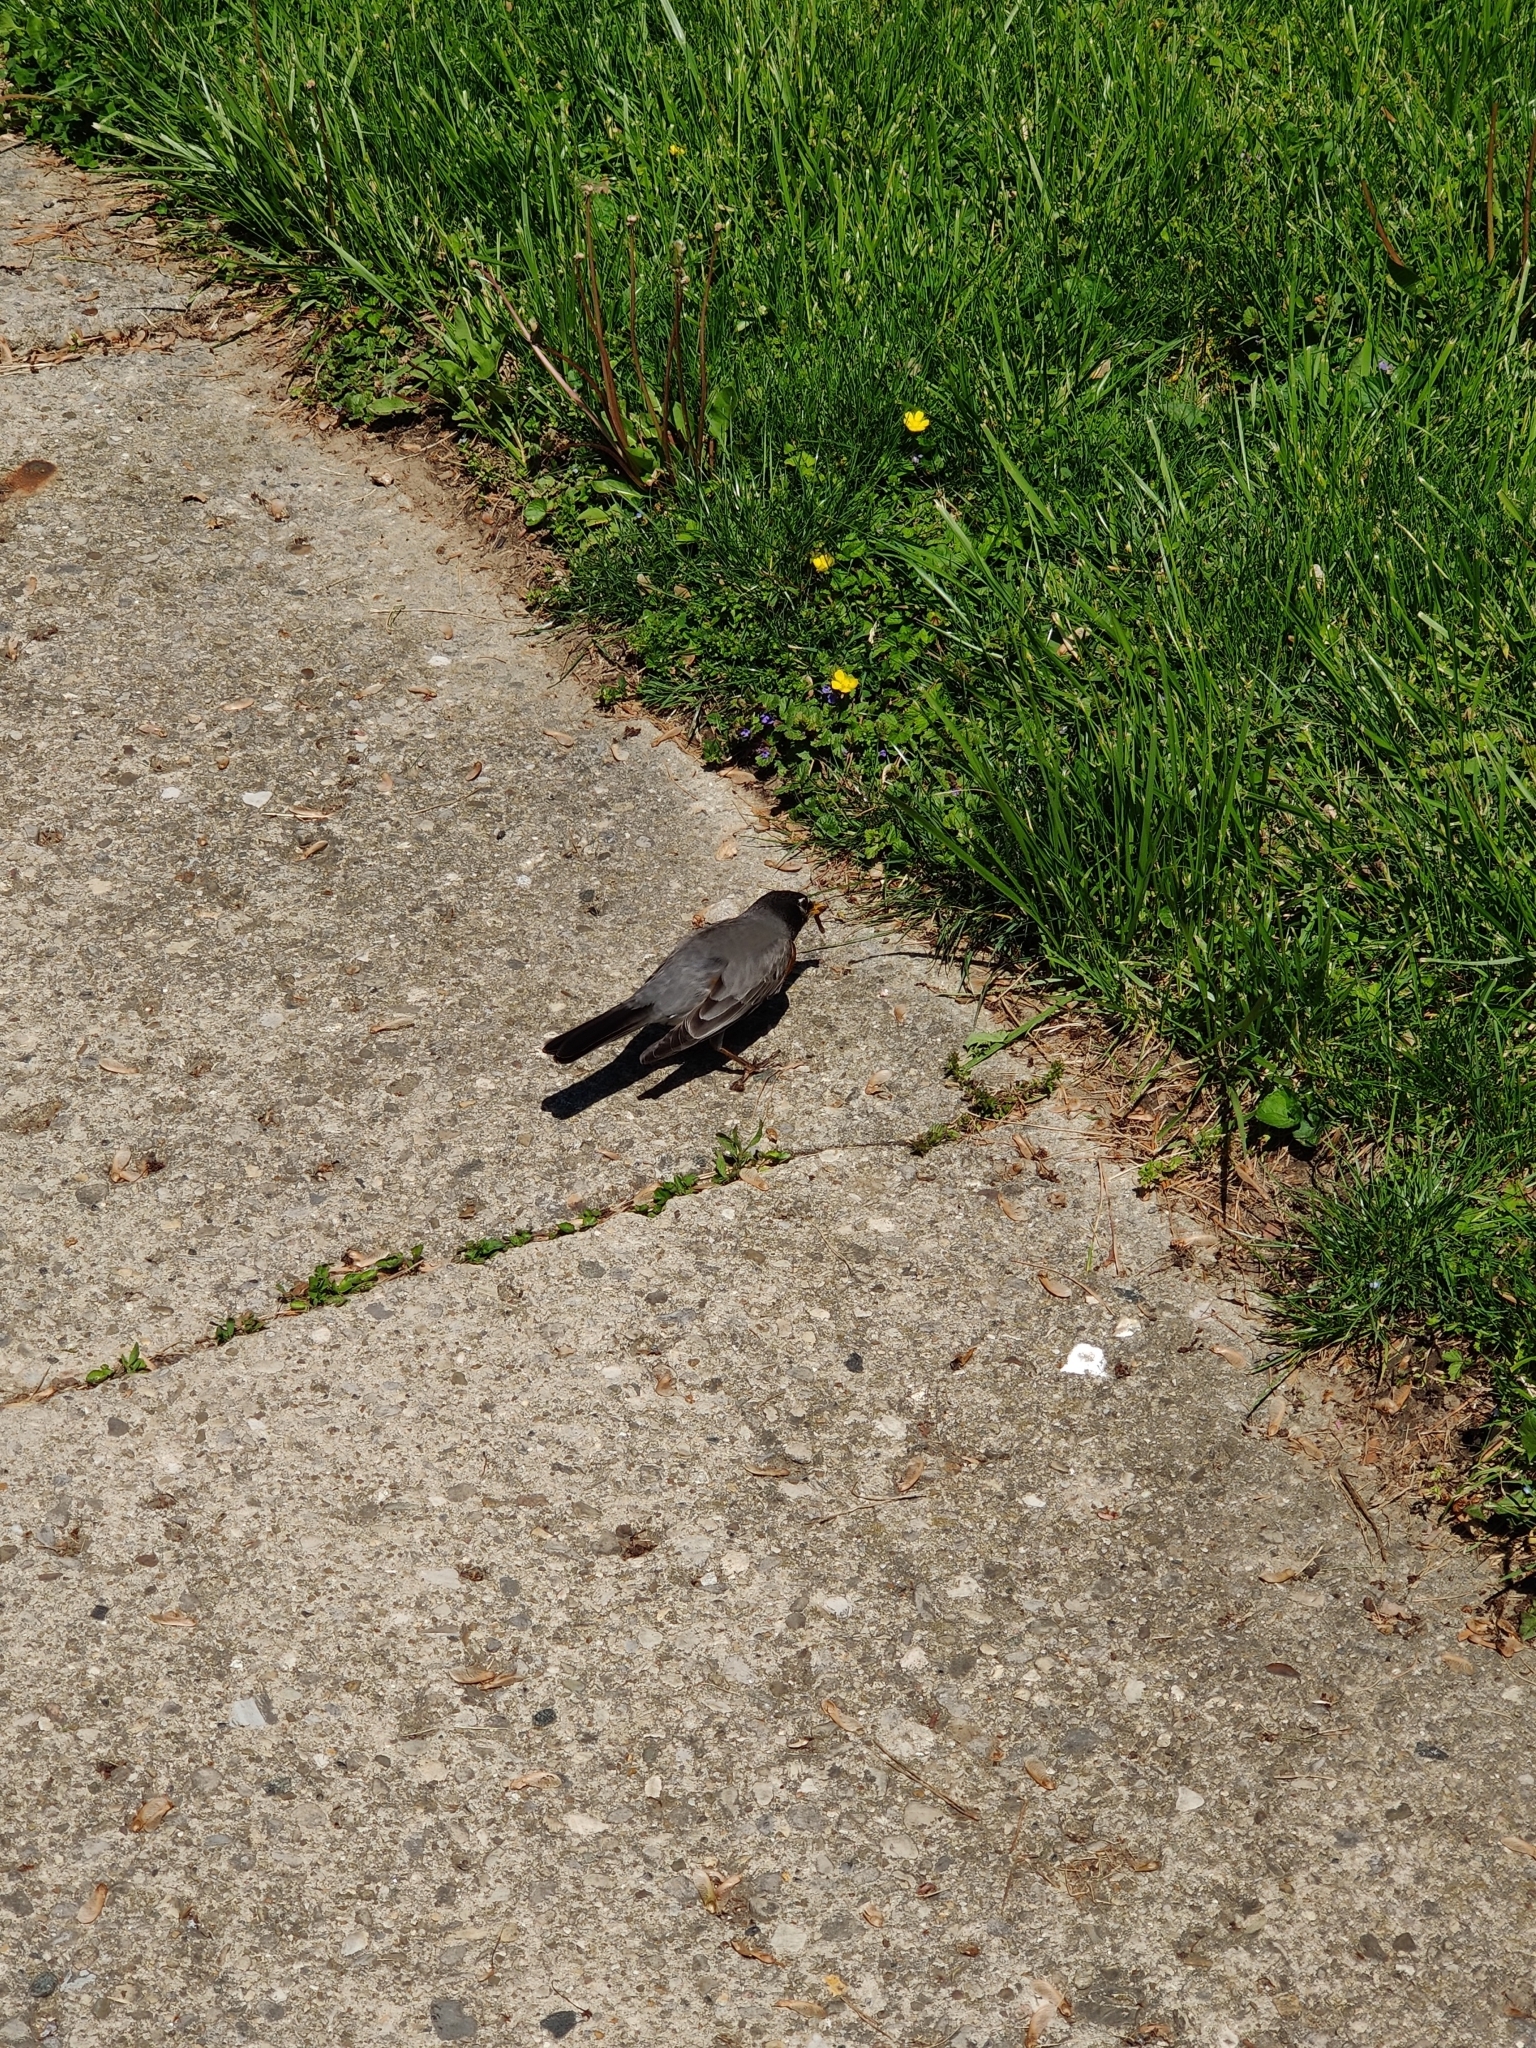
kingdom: Animalia
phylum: Chordata
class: Aves
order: Passeriformes
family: Turdidae
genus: Turdus
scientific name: Turdus migratorius
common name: American robin
